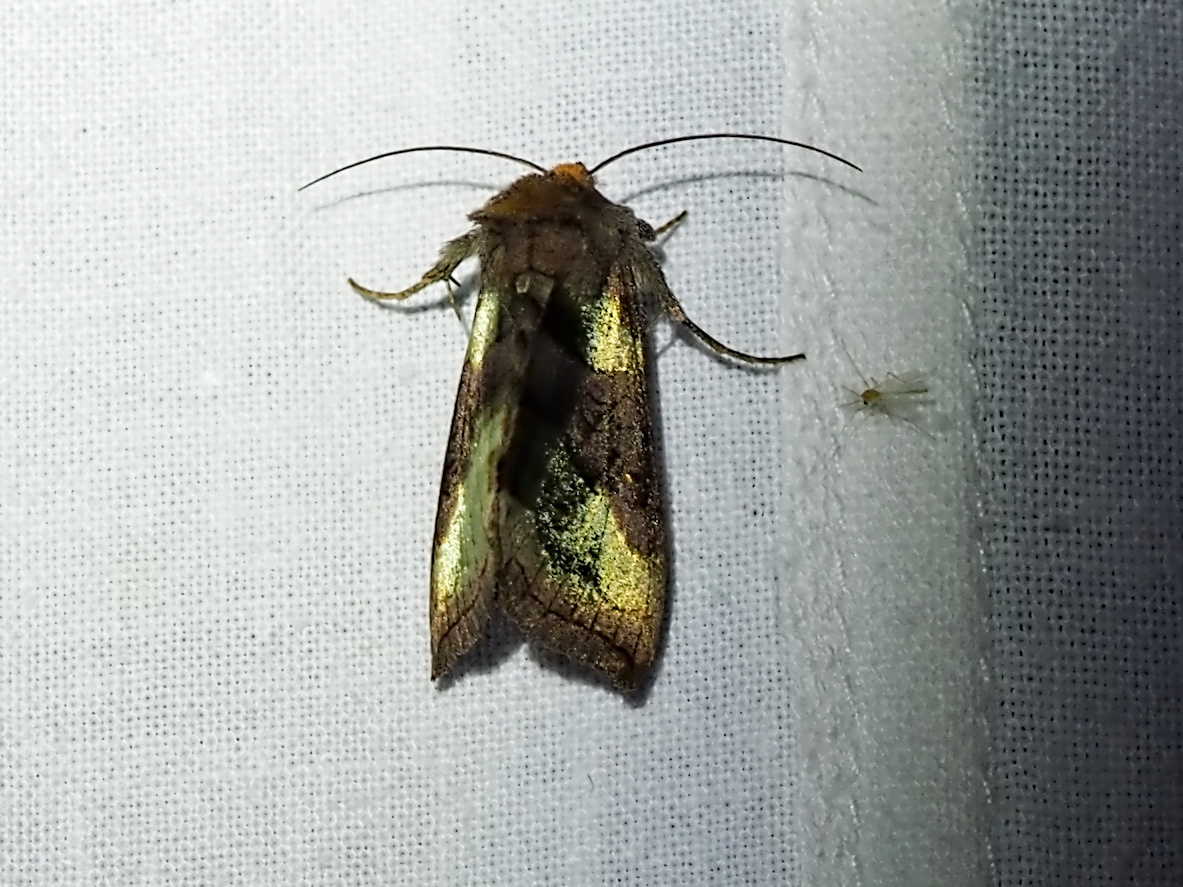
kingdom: Animalia
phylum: Arthropoda
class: Insecta
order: Lepidoptera
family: Noctuidae
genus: Diachrysia
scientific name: Diachrysia chrysitis
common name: Burnished brass
